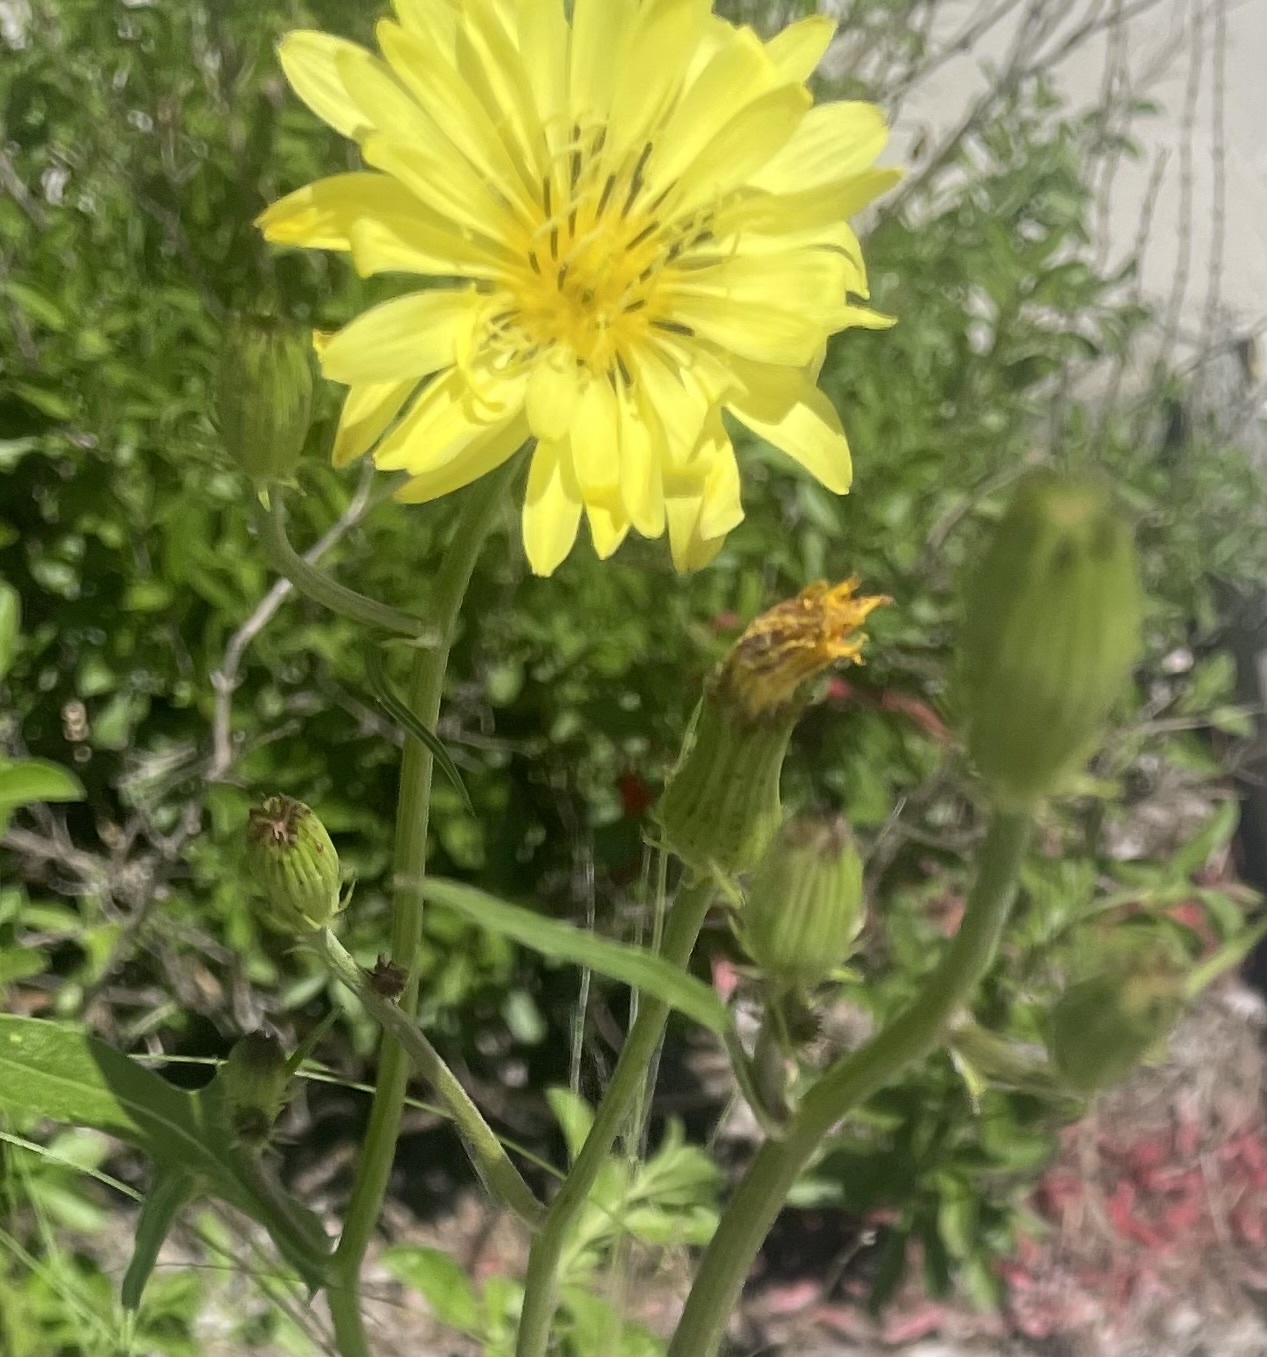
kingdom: Plantae
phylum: Tracheophyta
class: Magnoliopsida
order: Asterales
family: Asteraceae
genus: Pyrrhopappus
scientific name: Pyrrhopappus pauciflorus
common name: Texas false dandelion
